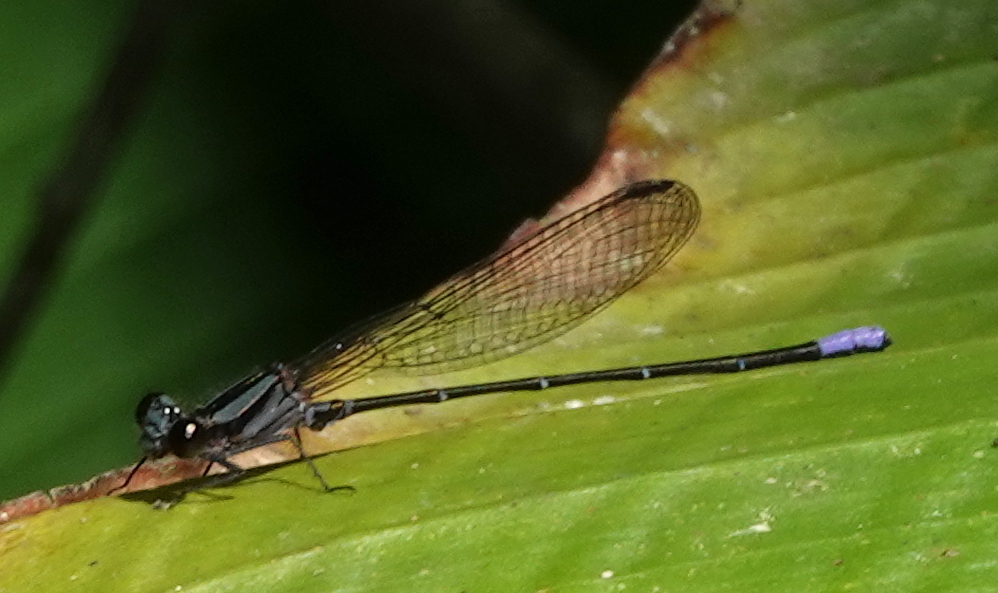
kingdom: Animalia
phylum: Arthropoda
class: Insecta
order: Odonata
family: Coenagrionidae
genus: Argia
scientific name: Argia frequentula
